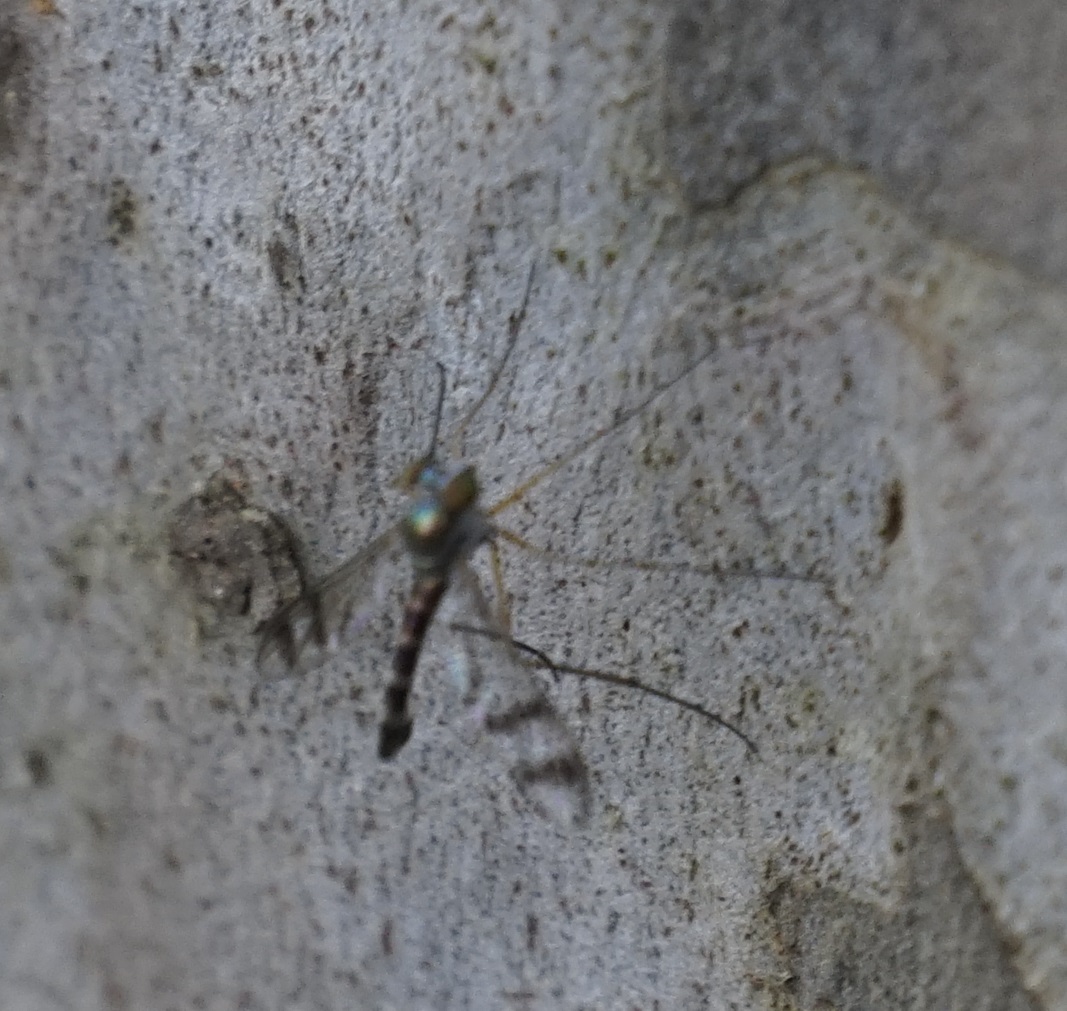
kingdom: Animalia
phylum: Arthropoda
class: Insecta
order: Diptera
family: Dolichopodidae
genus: Heteropsilopus
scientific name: Heteropsilopus squamifer
